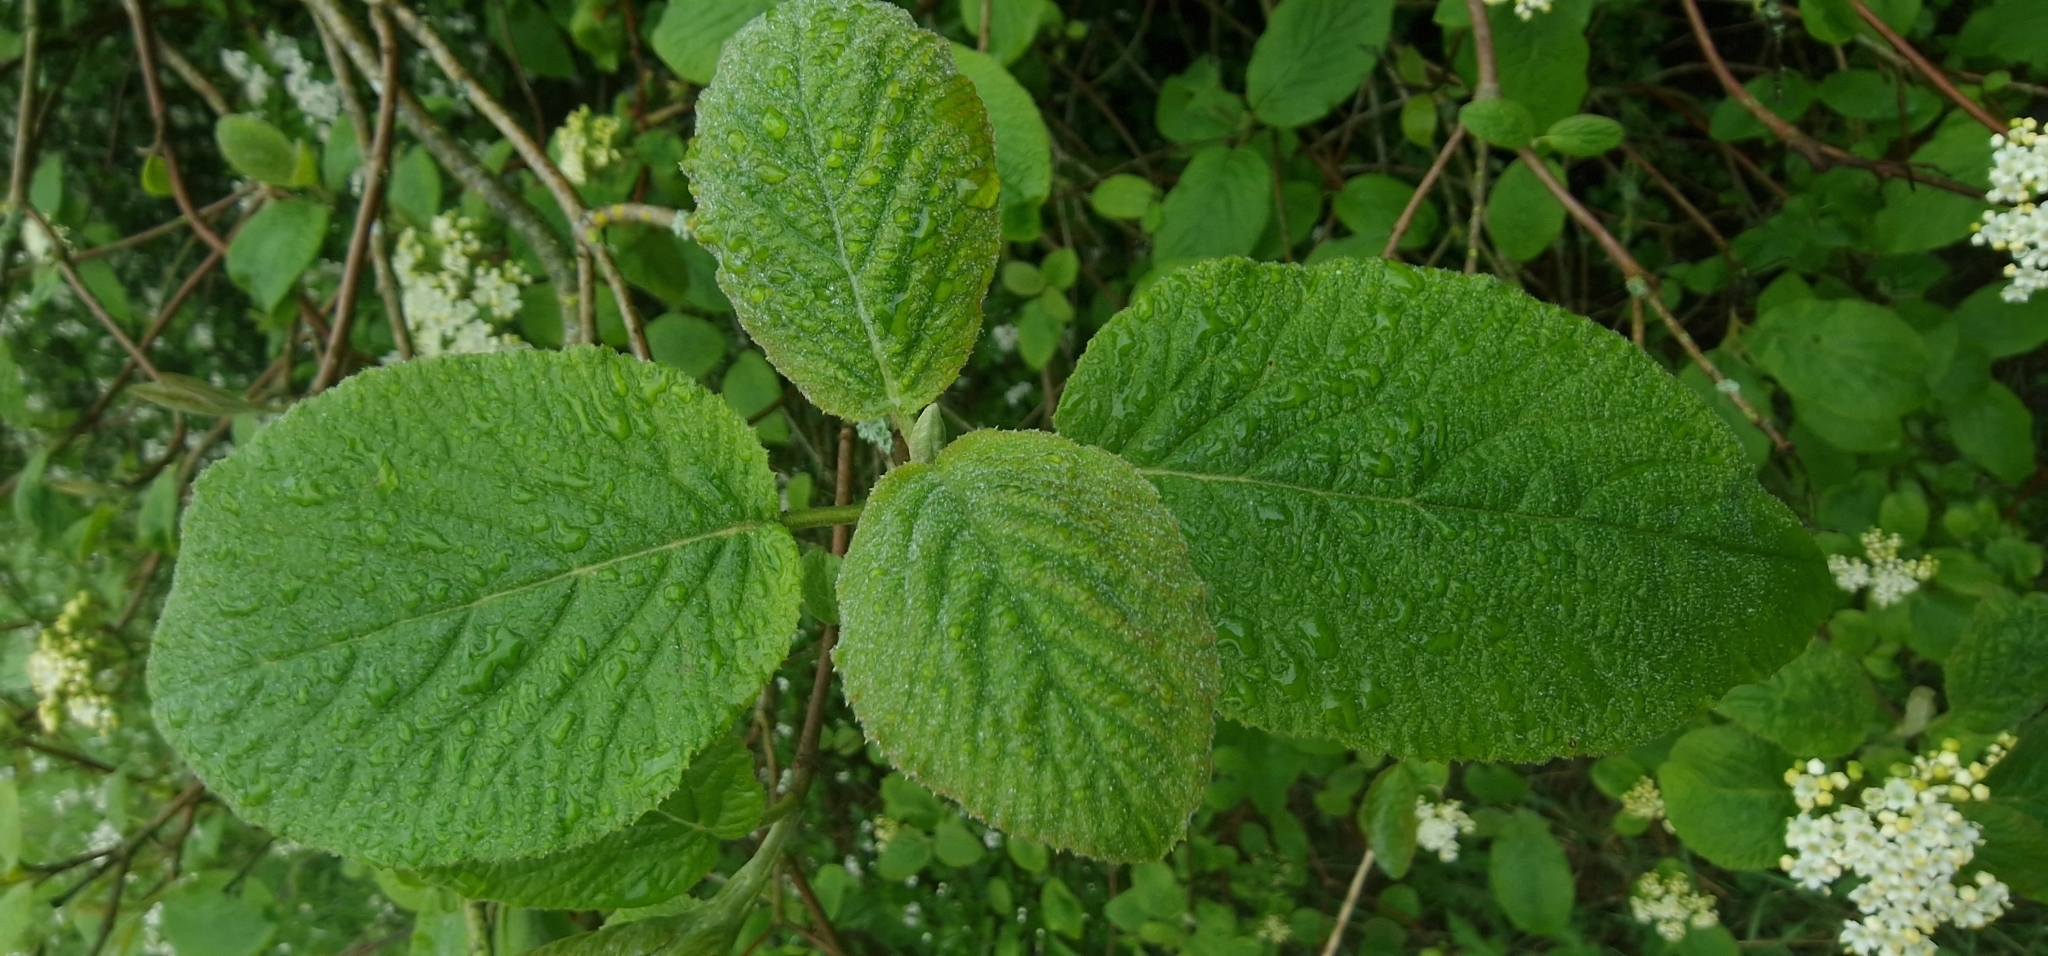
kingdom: Plantae
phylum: Tracheophyta
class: Magnoliopsida
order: Dipsacales
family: Viburnaceae
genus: Viburnum
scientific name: Viburnum lantana
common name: Wayfaring tree
